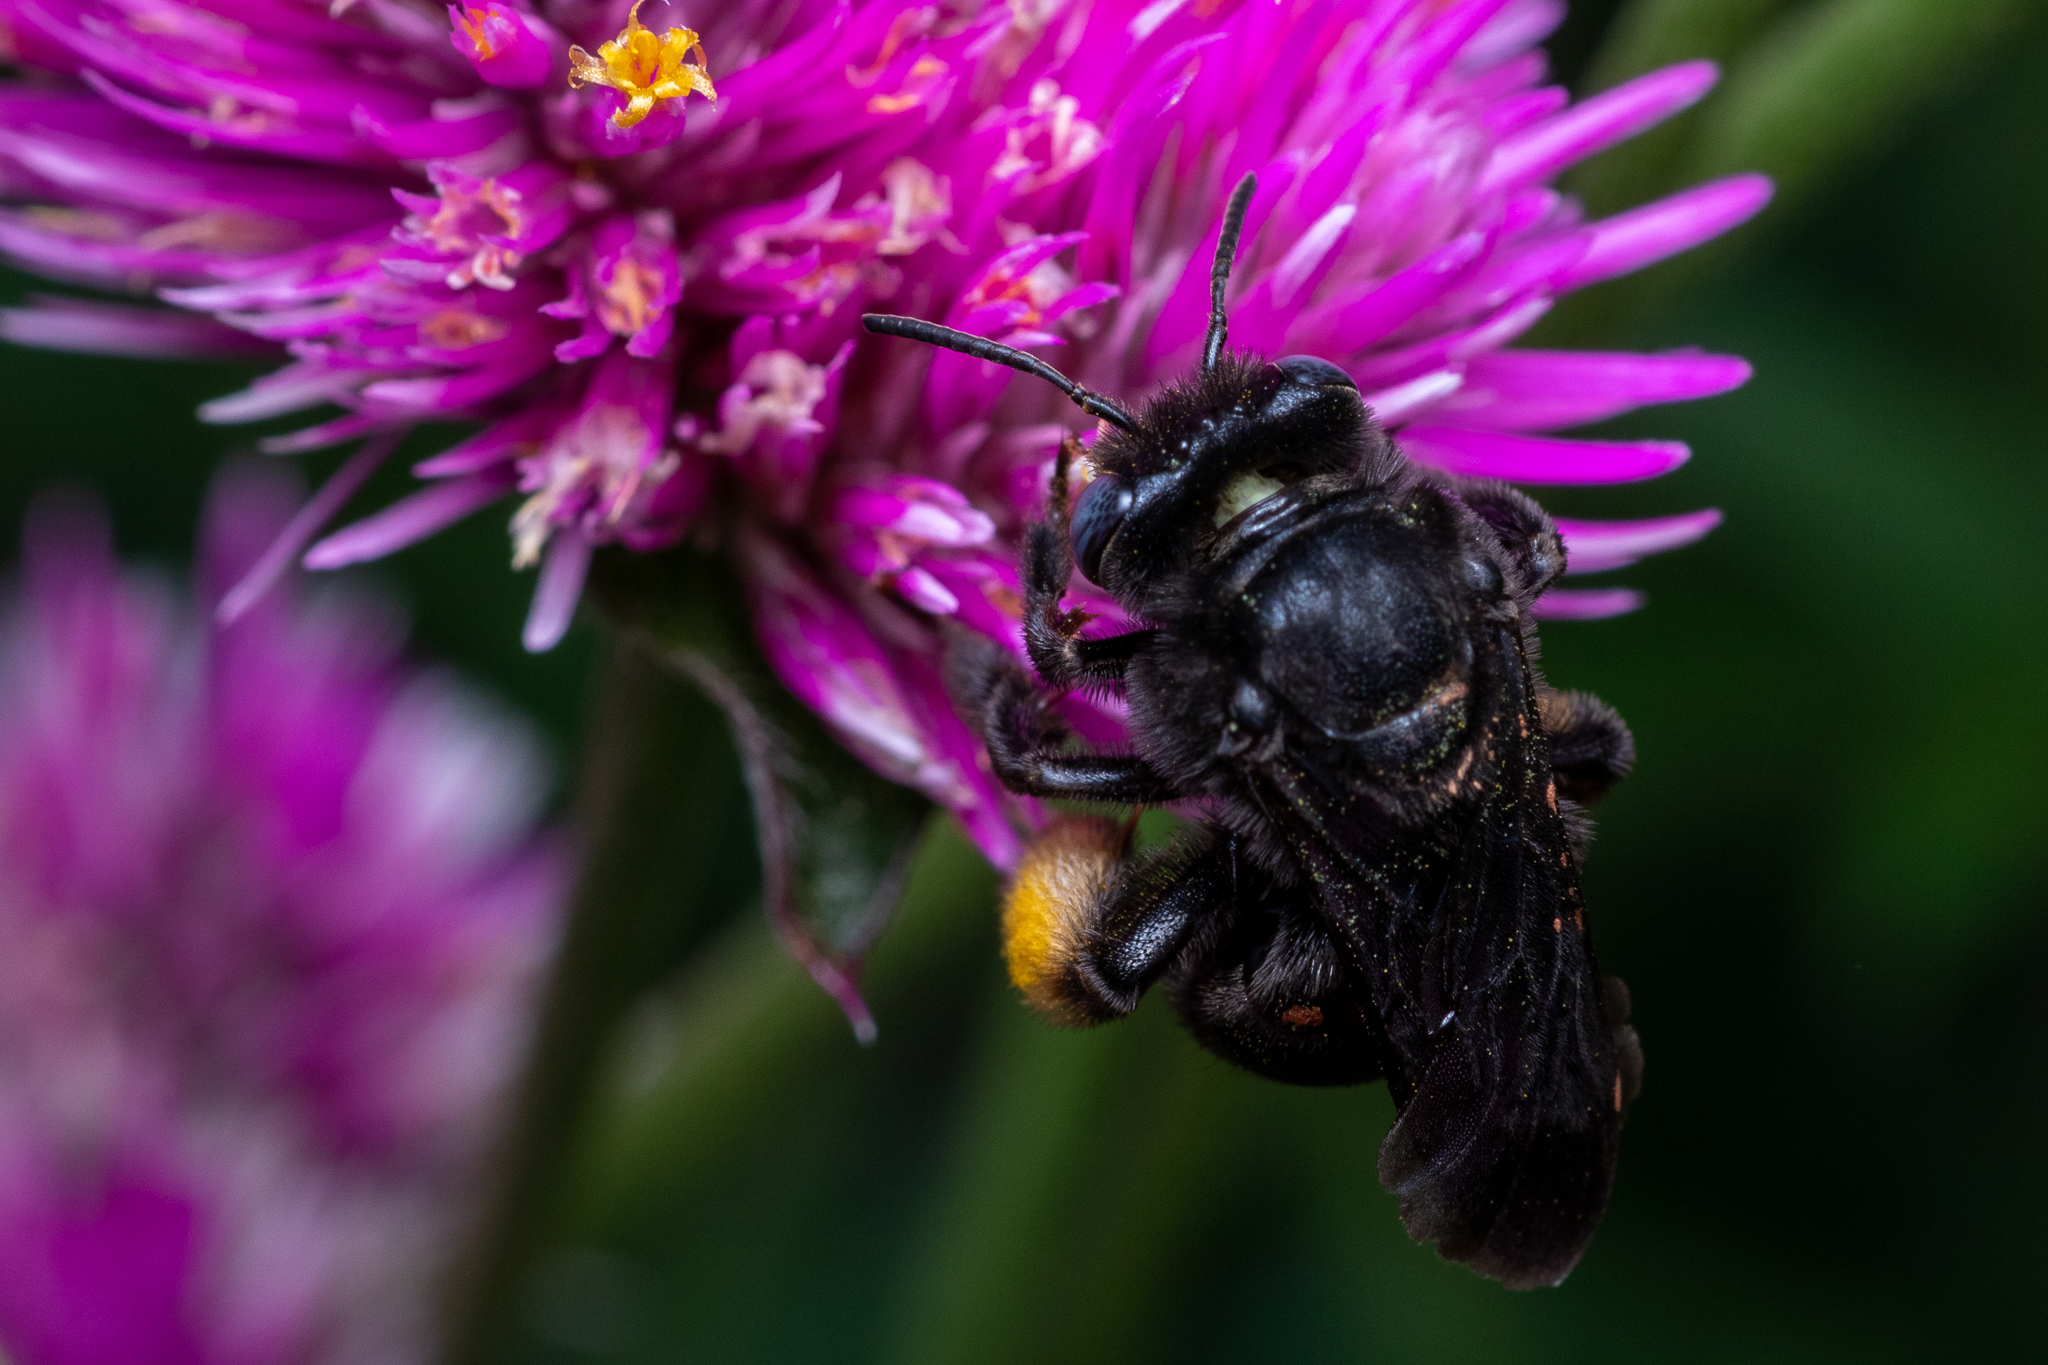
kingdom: Animalia
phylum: Arthropoda
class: Insecta
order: Hymenoptera
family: Apidae
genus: Melissodes
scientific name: Melissodes bimaculatus
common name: Two-spotted long-horned bee
